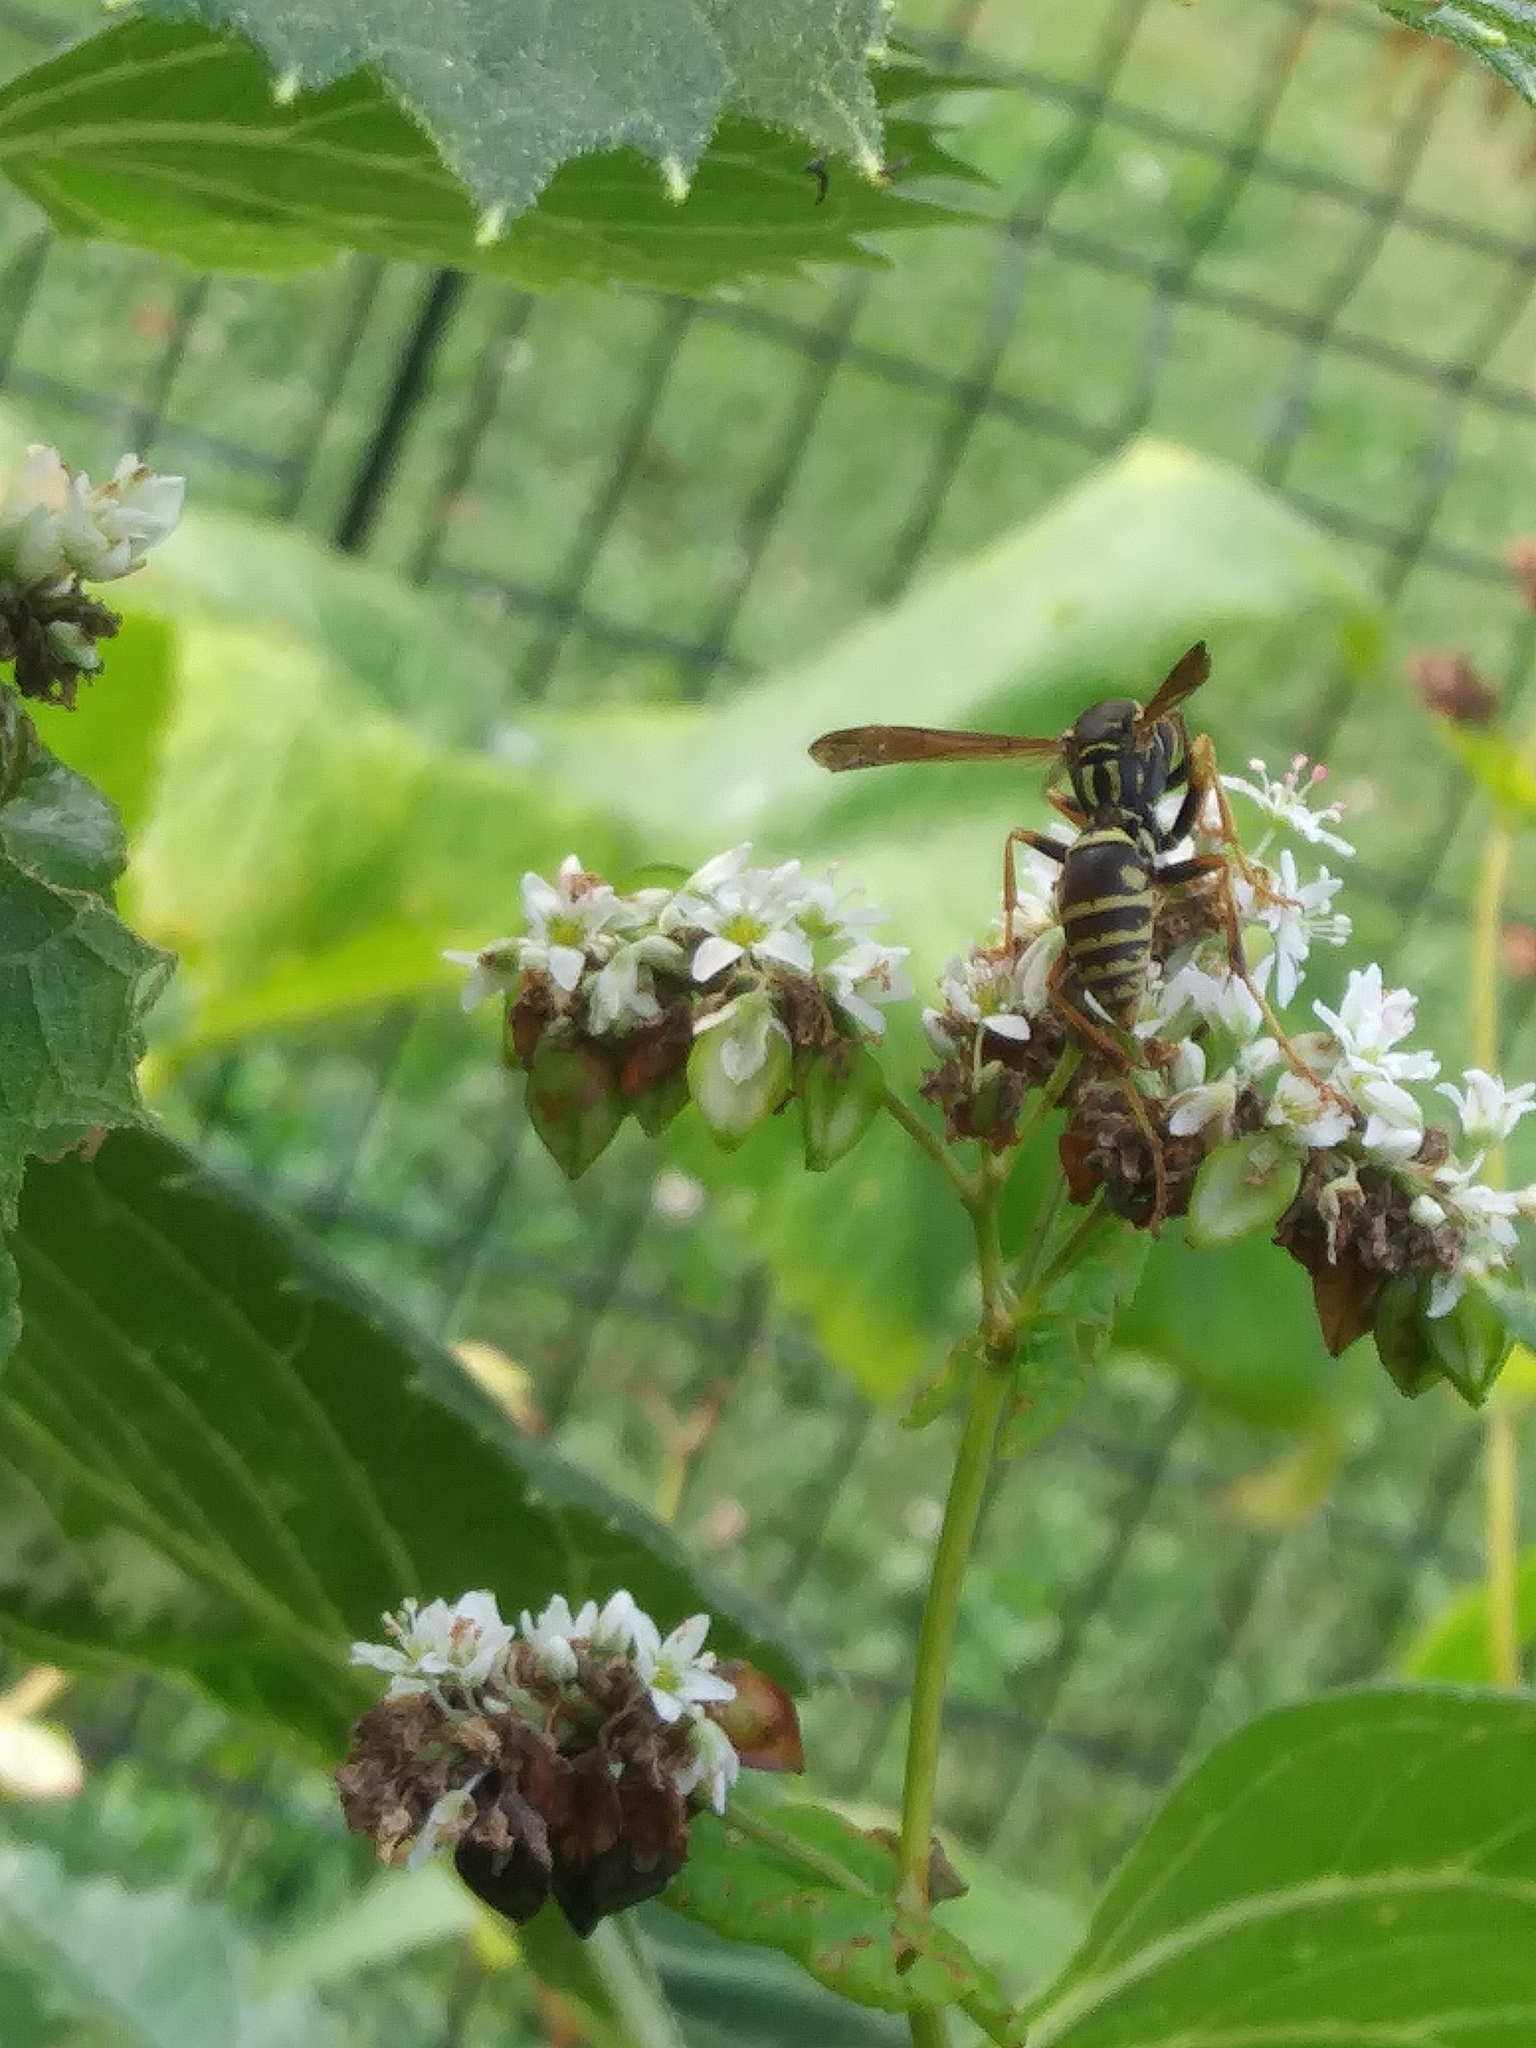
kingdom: Animalia
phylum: Arthropoda
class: Insecta
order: Hymenoptera
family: Eumenidae
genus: Polistes
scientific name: Polistes fuscatus
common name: Dark paper wasp
